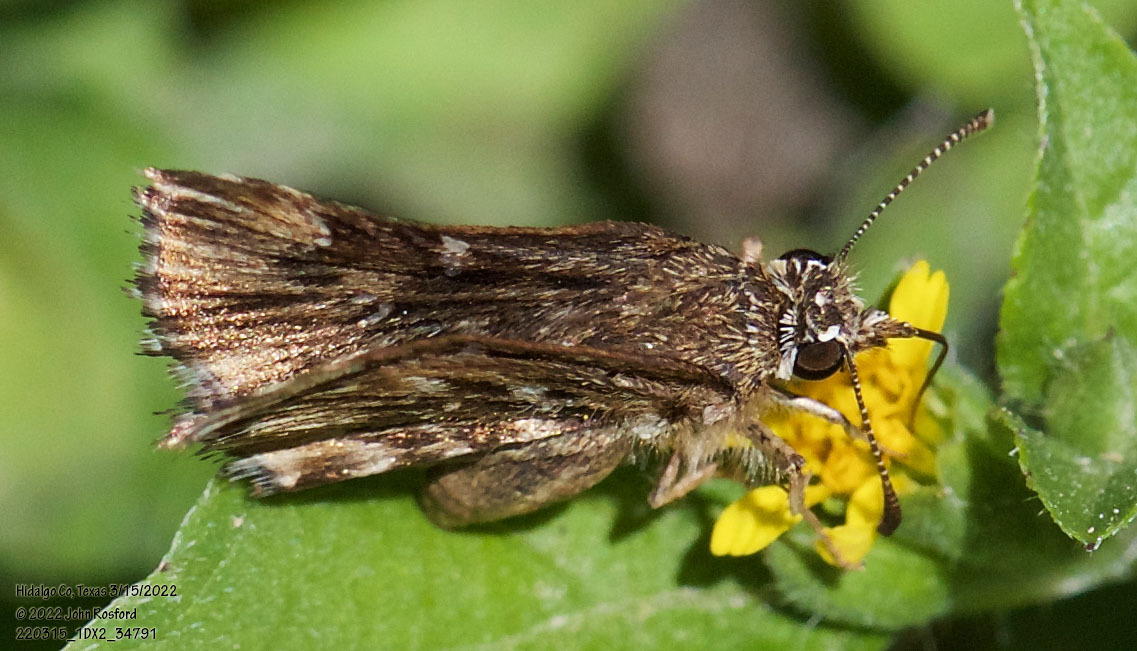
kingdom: Animalia
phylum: Arthropoda
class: Insecta
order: Lepidoptera
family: Hesperiidae
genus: Celotes
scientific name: Celotes nessus
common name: Common streaky-skipper
